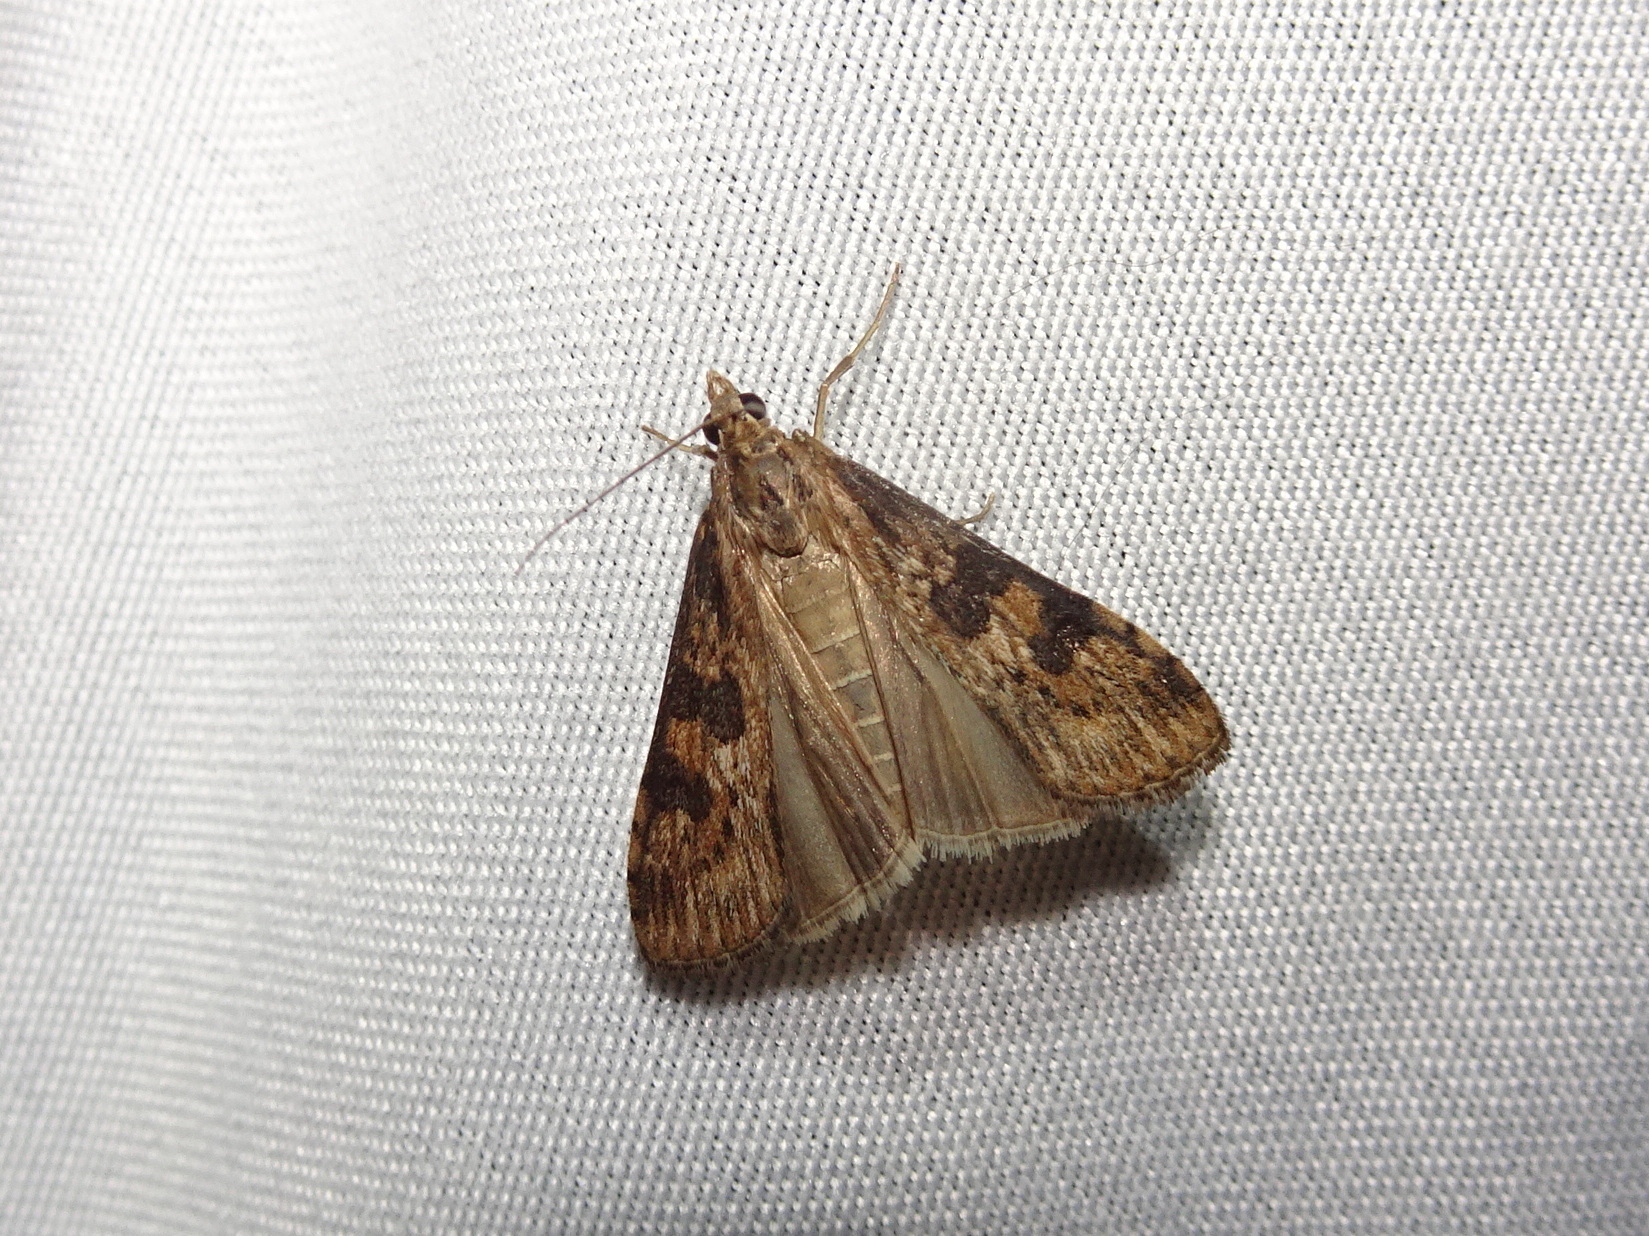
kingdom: Animalia
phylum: Arthropoda
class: Insecta
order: Lepidoptera
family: Crambidae
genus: Nomophila
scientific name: Nomophila nearctica
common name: American rush veneer
